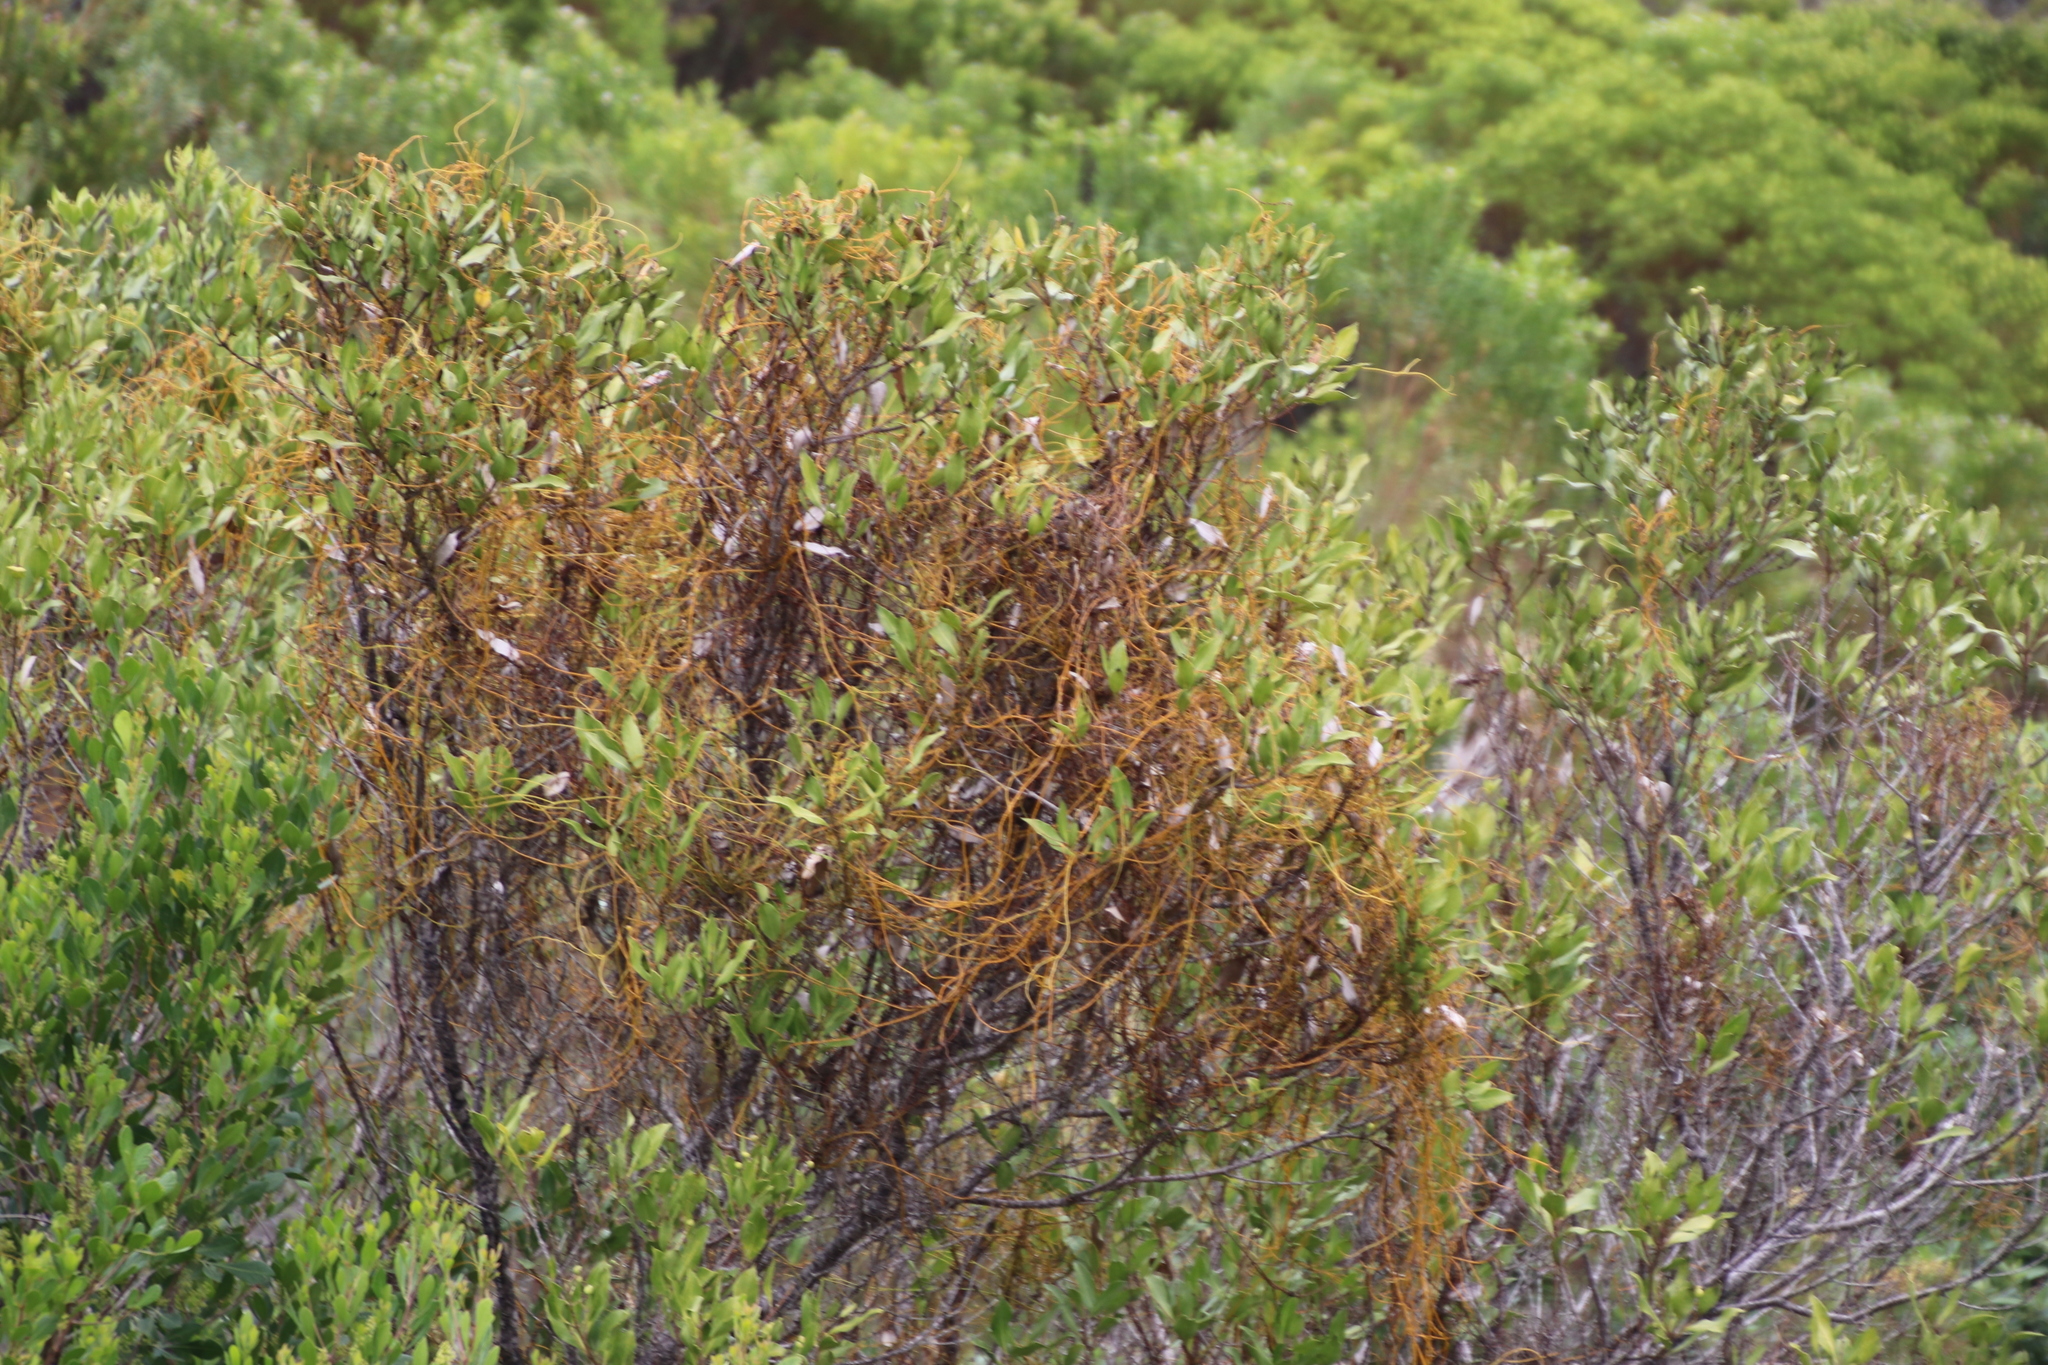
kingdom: Plantae
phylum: Tracheophyta
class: Magnoliopsida
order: Laurales
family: Lauraceae
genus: Cassytha
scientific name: Cassytha ciliolata
